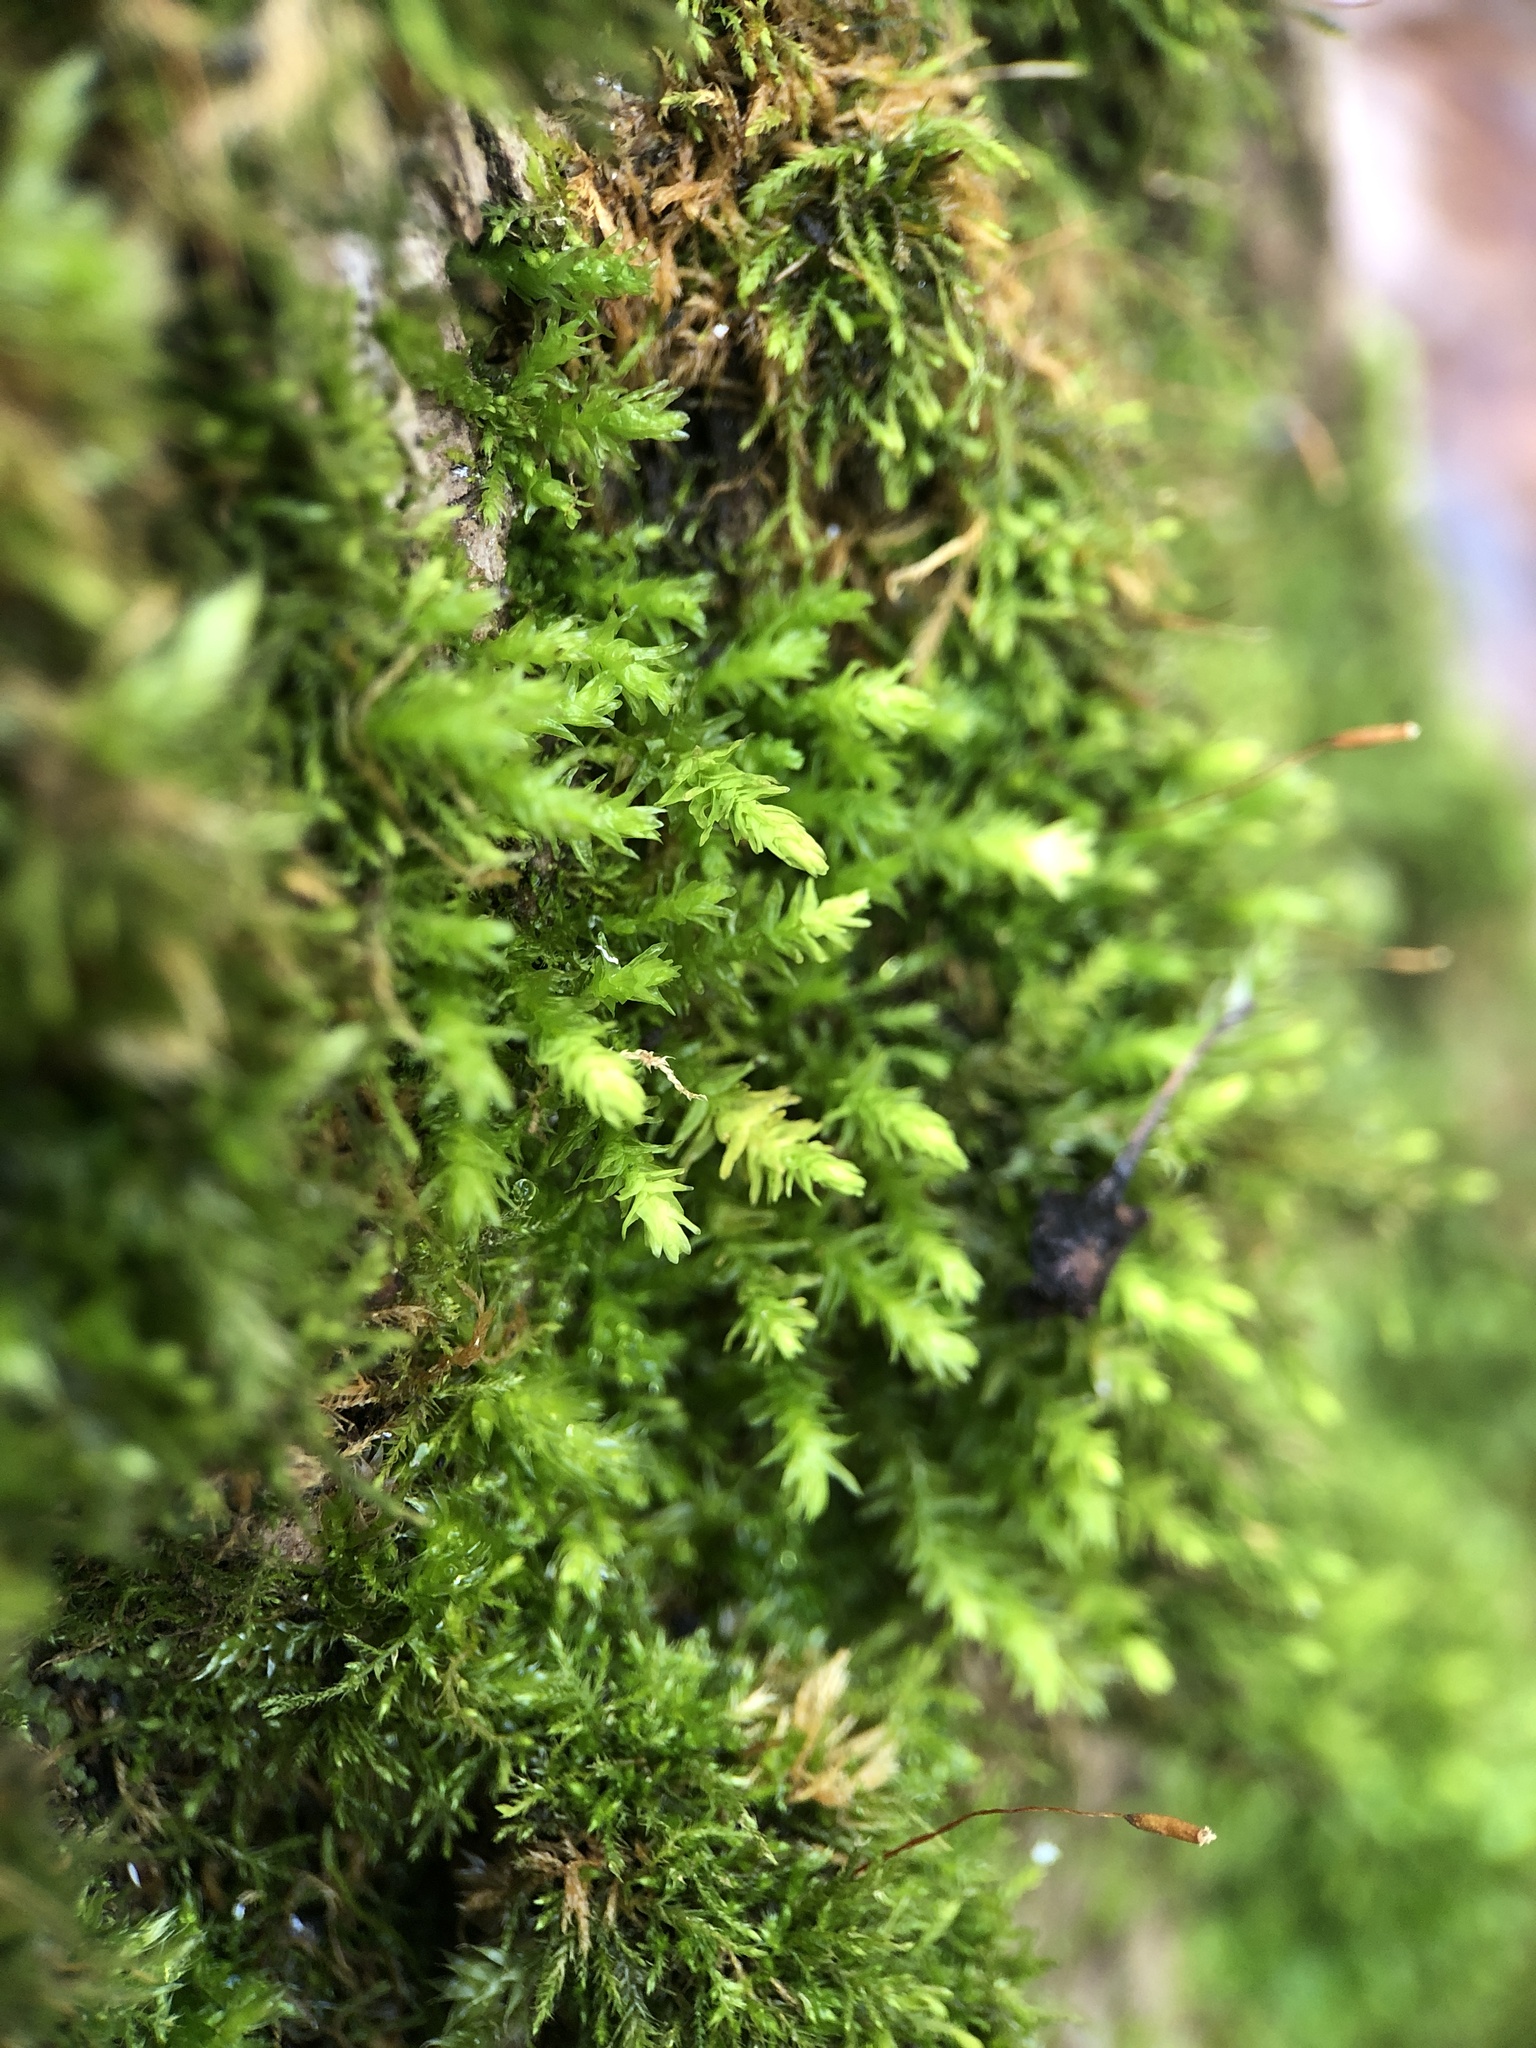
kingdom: Plantae
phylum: Bryophyta
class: Bryopsida
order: Hypnales
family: Anomodontaceae
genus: Anomodon
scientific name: Anomodon viticulosus
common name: Tall anomodon
